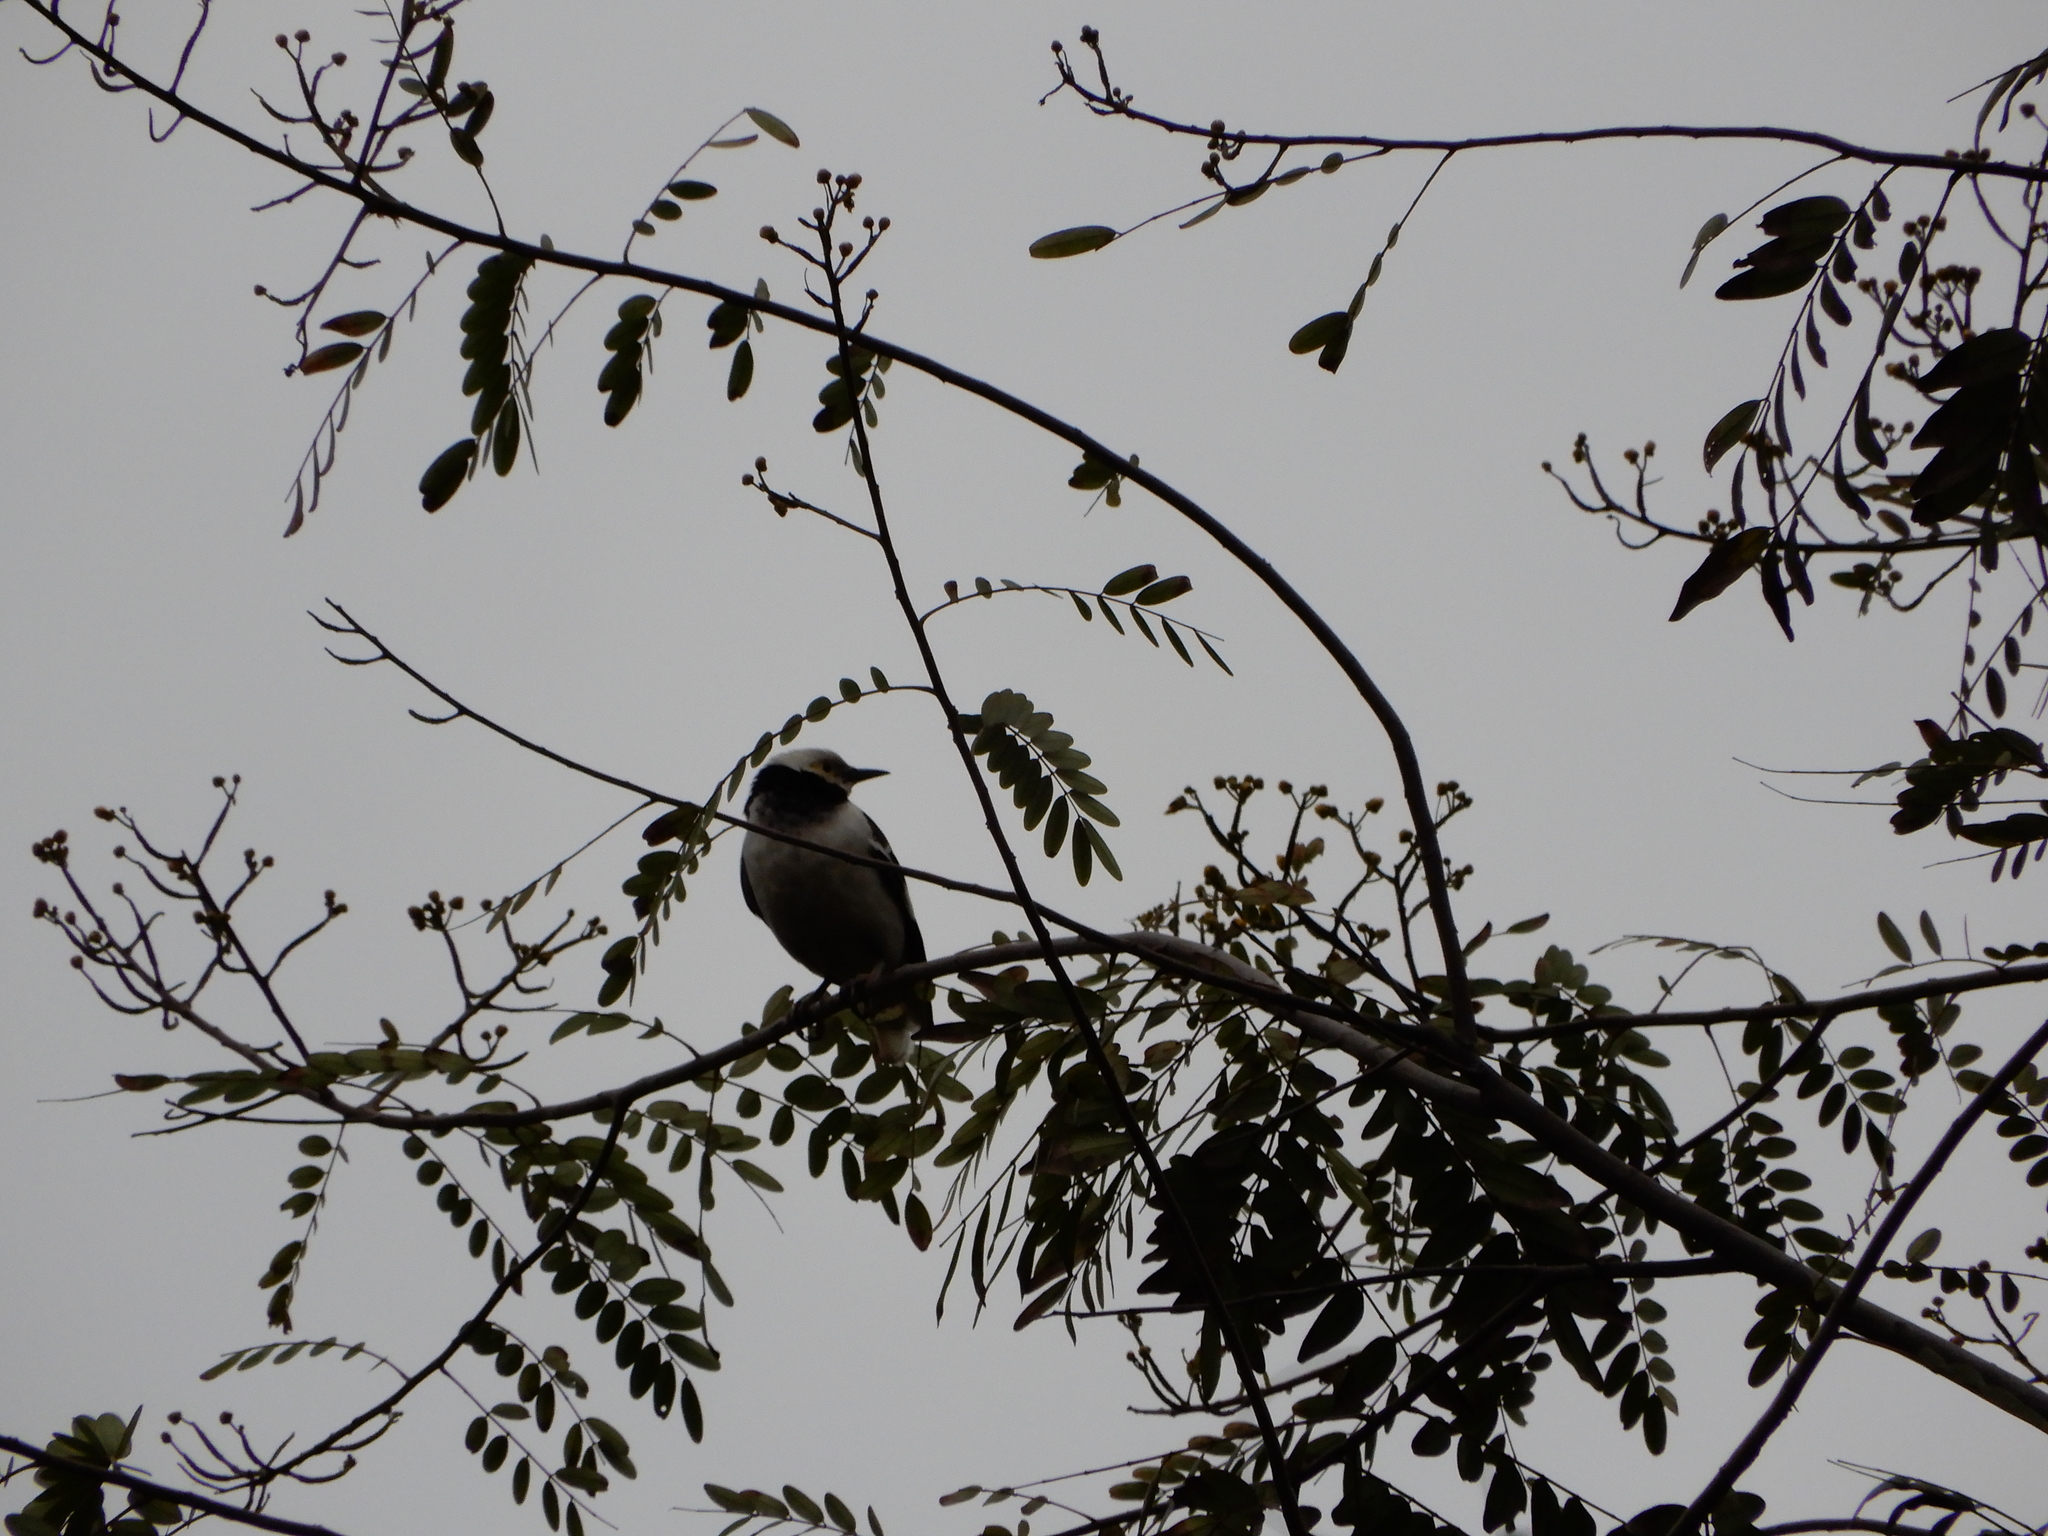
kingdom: Animalia
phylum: Chordata
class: Aves
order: Passeriformes
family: Sturnidae
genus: Gracupica
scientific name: Gracupica nigricollis
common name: Black-collared starling
